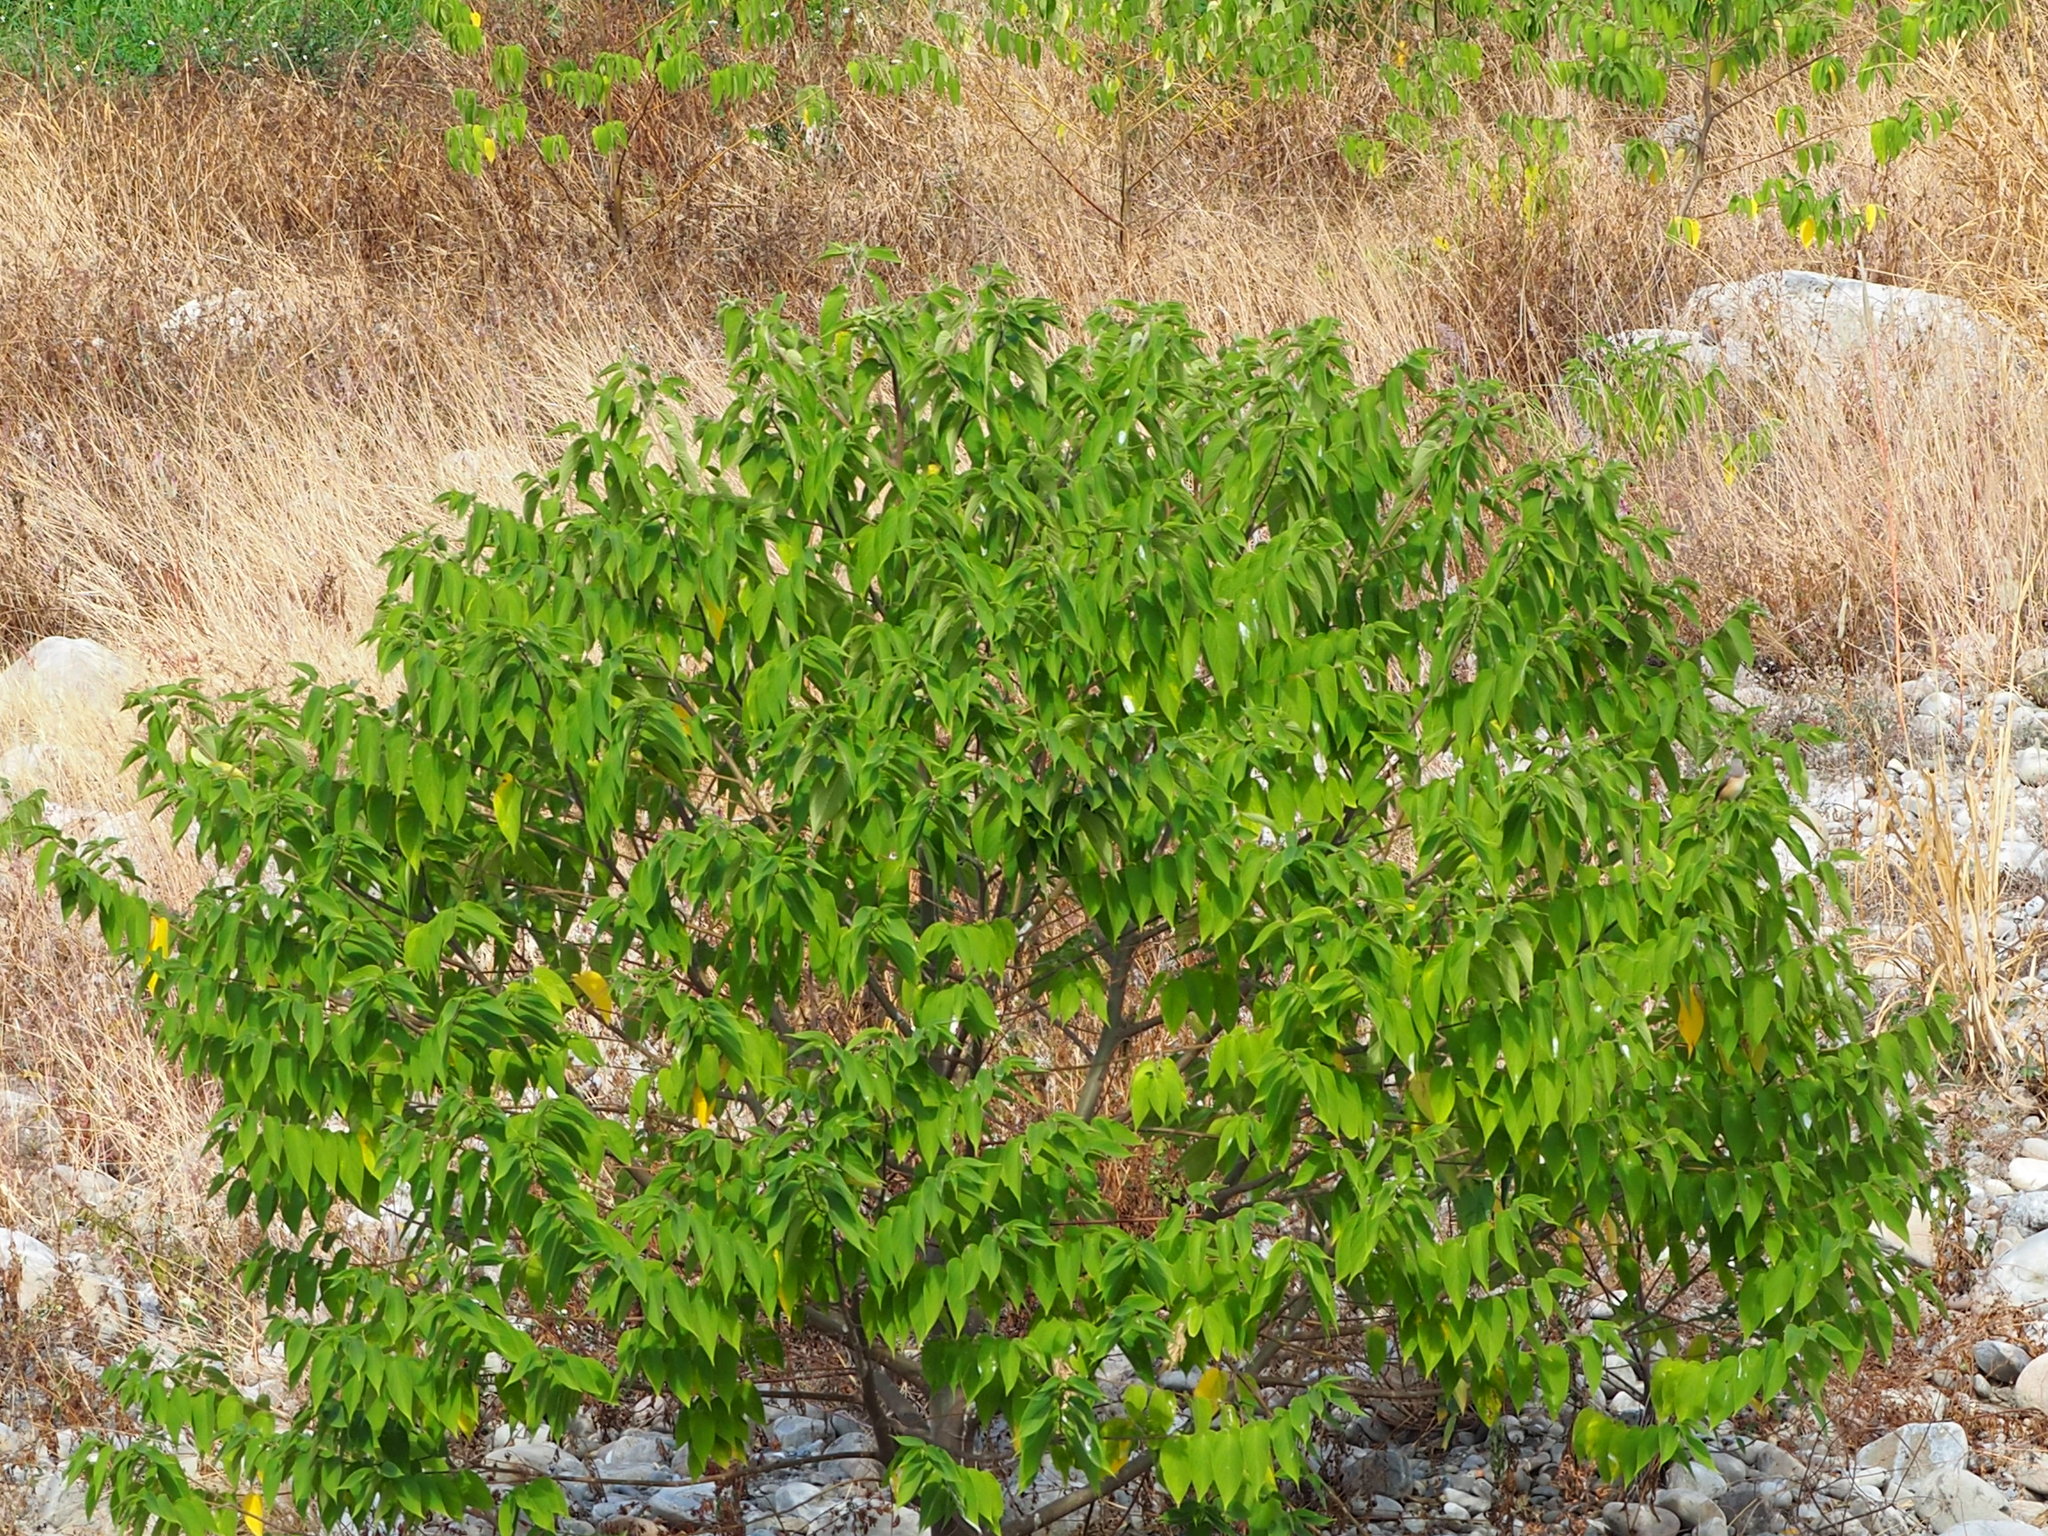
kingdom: Plantae
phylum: Tracheophyta
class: Magnoliopsida
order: Rosales
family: Cannabaceae
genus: Trema
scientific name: Trema orientale
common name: Indian charcoal tree
